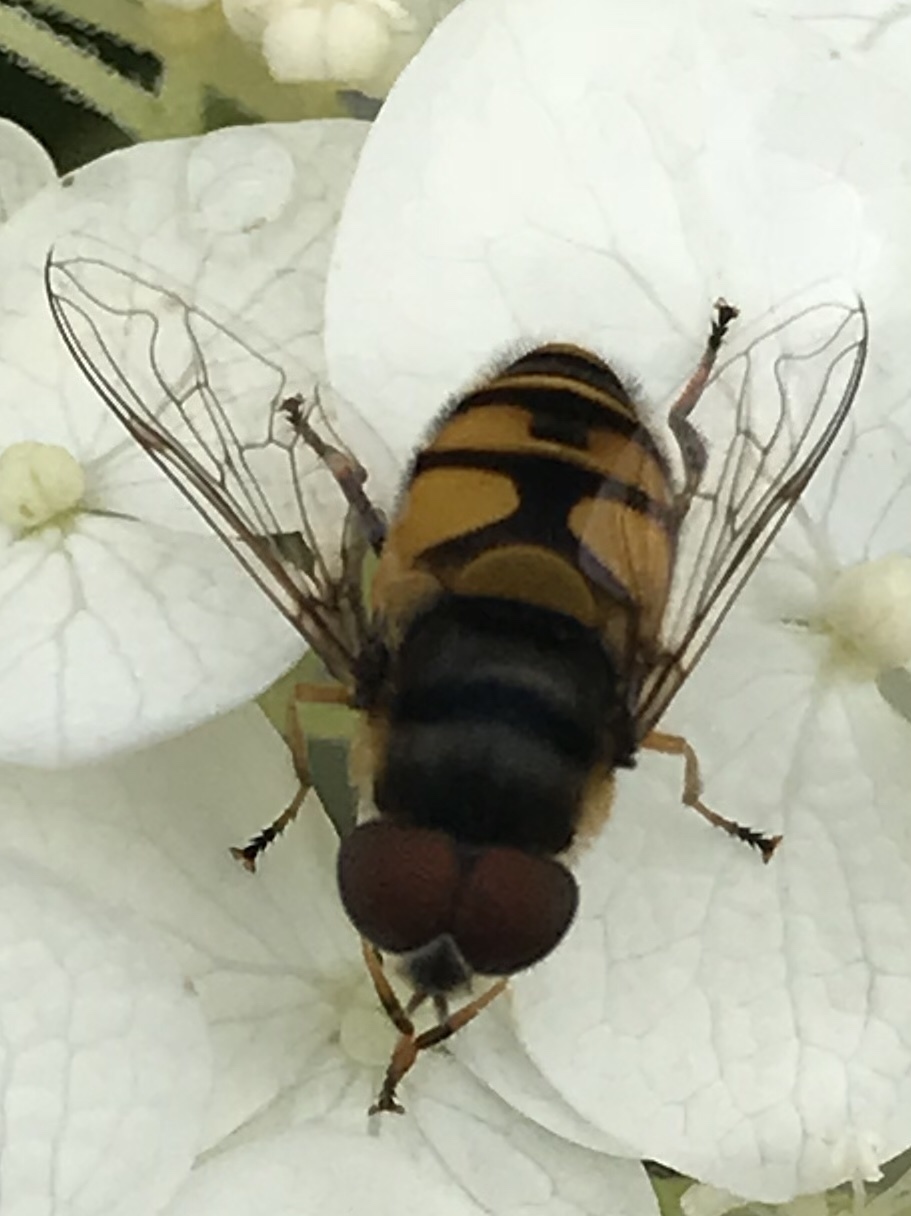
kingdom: Animalia
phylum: Arthropoda
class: Insecta
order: Diptera
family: Syrphidae
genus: Eristalis
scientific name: Eristalis transversa
